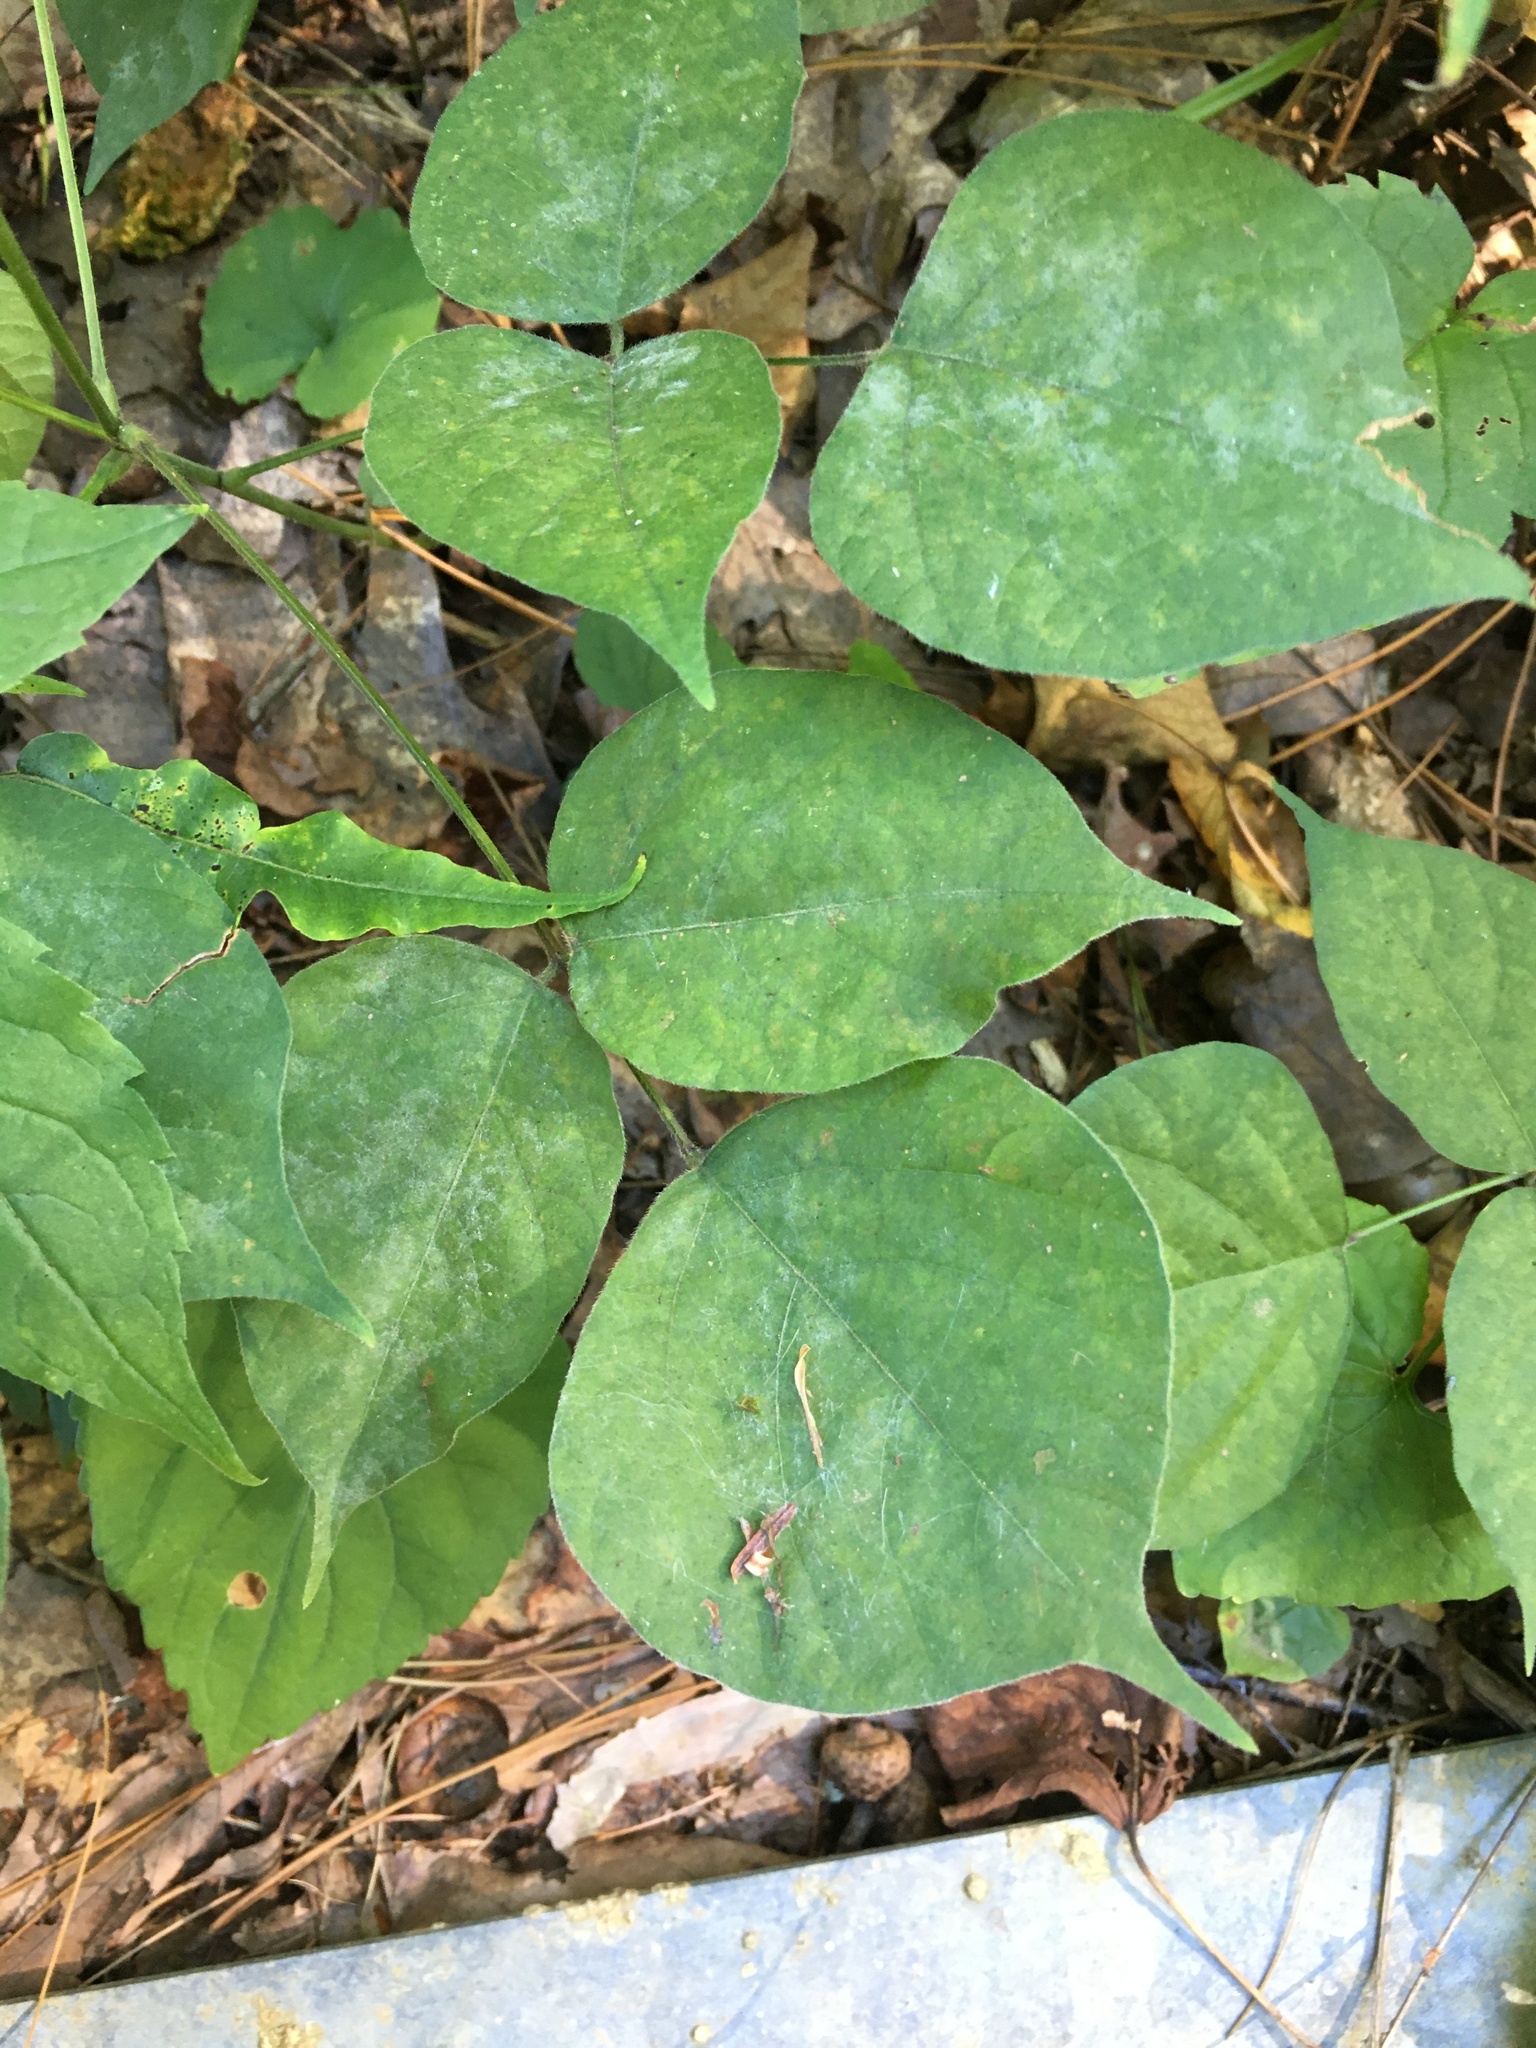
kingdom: Plantae
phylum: Tracheophyta
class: Magnoliopsida
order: Fabales
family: Fabaceae
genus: Hylodesmum
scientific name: Hylodesmum glutinosum
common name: Clustered-leaved tick-trefoil
